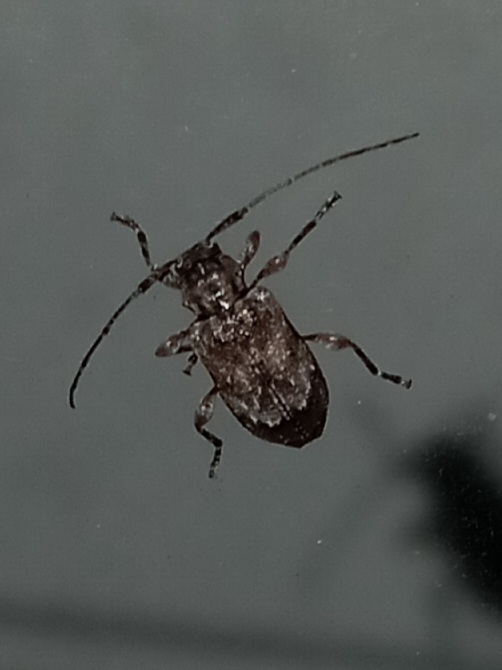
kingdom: Animalia
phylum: Arthropoda
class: Insecta
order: Coleoptera
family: Cerambycidae
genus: Astylopsis
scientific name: Astylopsis arcuata
